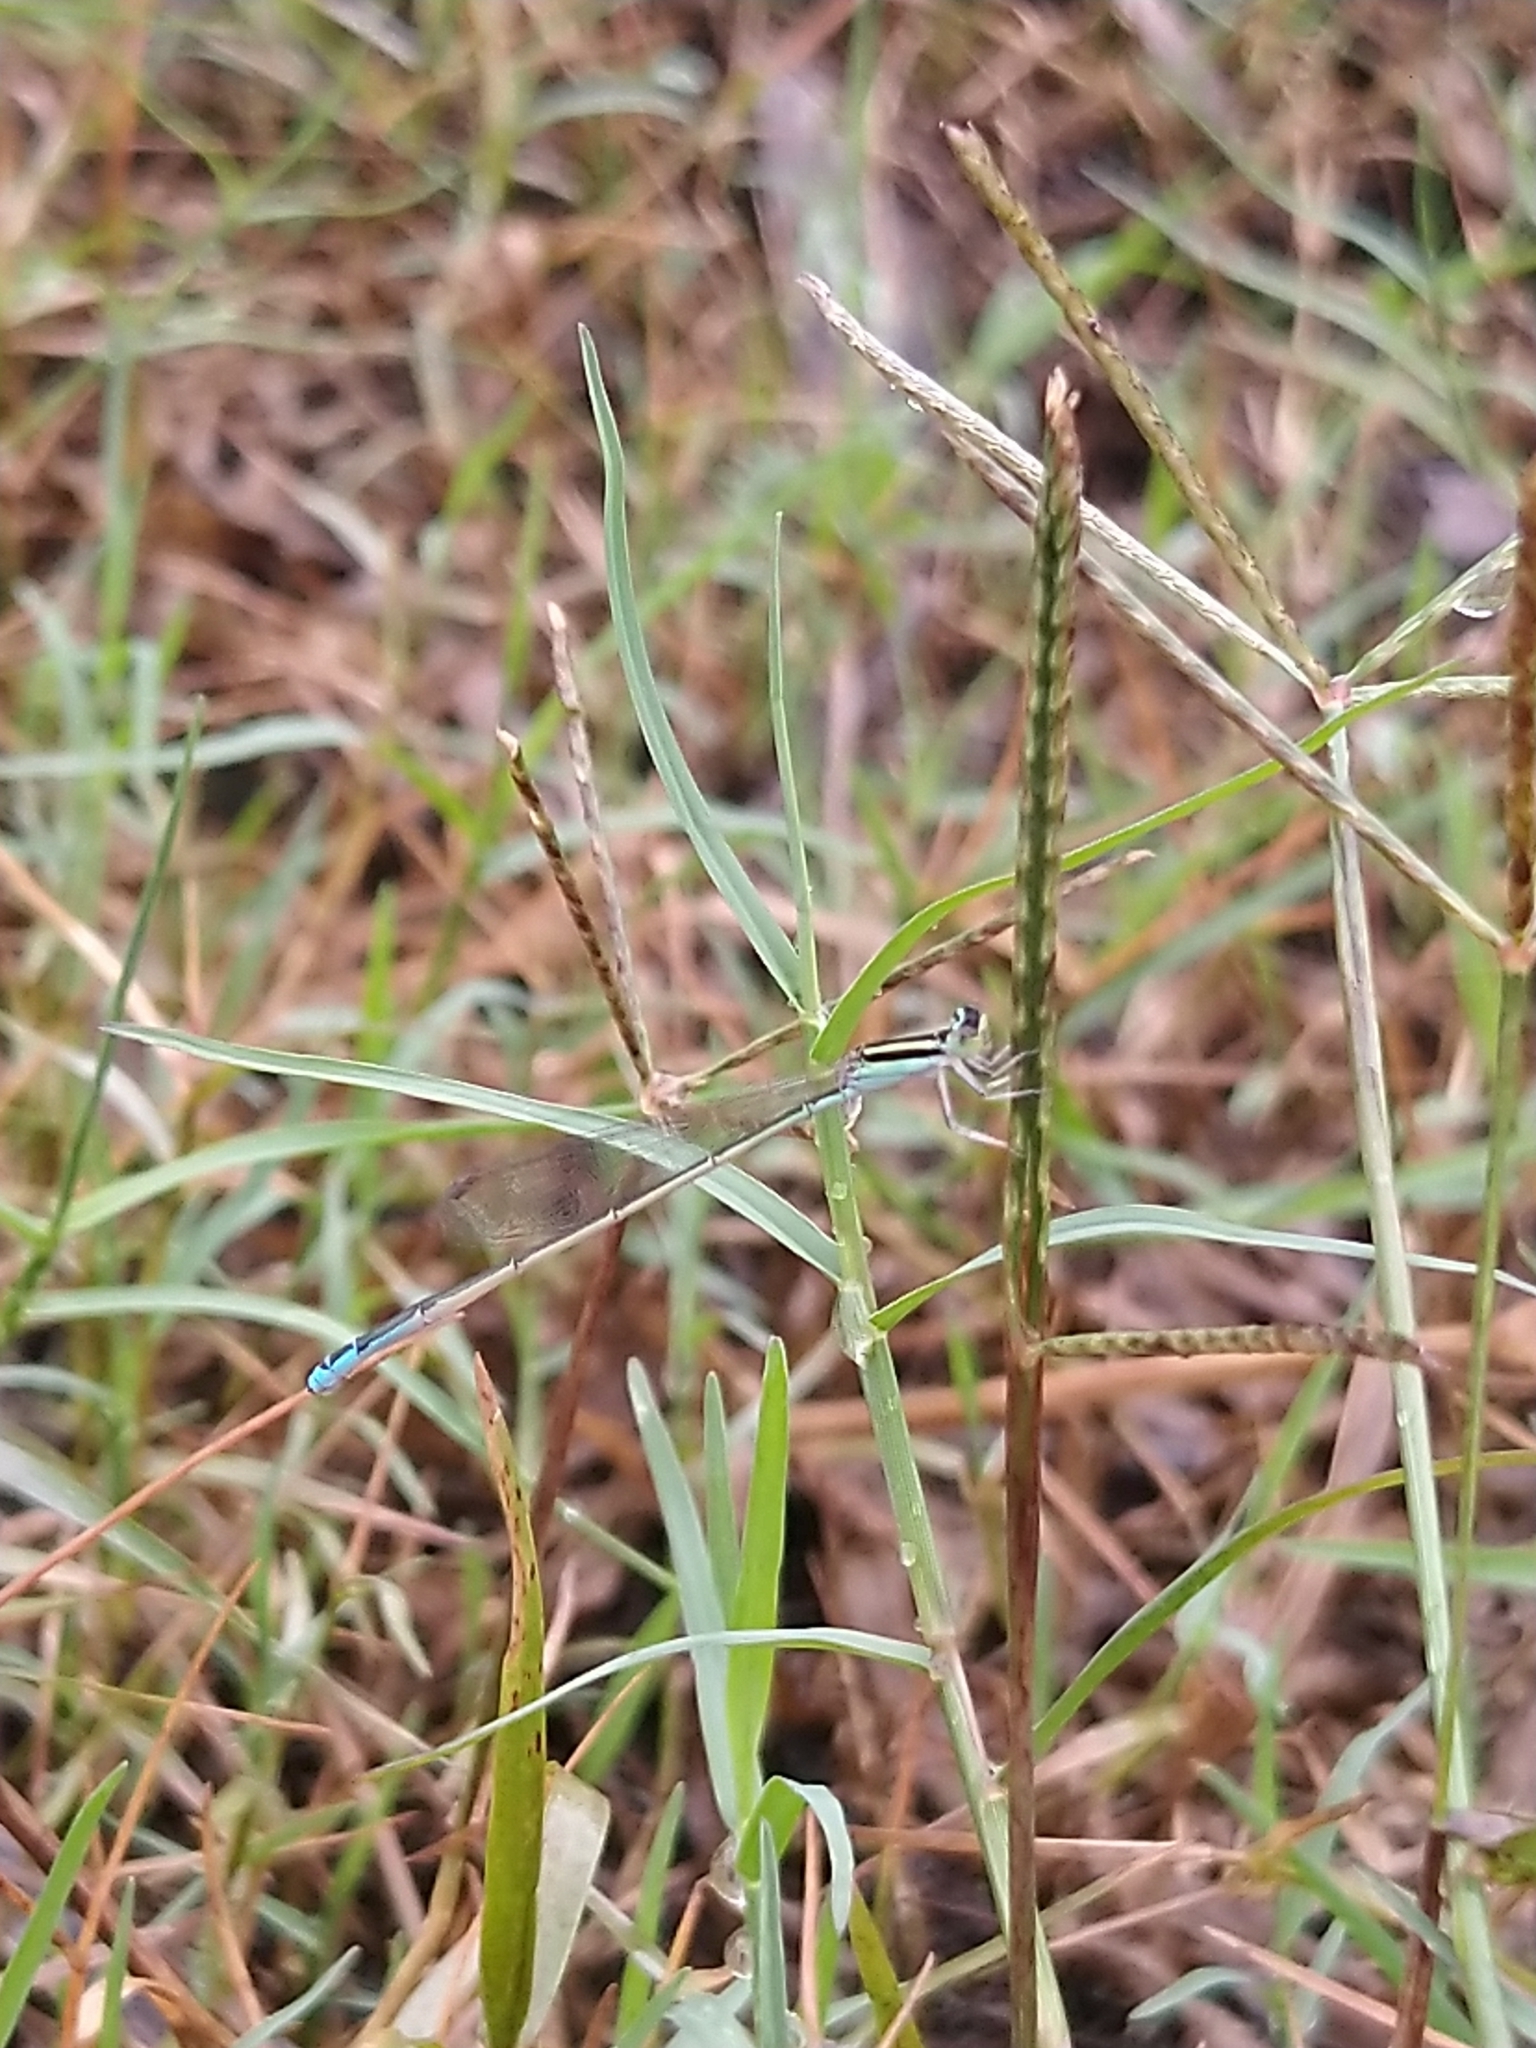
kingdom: Animalia
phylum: Arthropoda
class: Insecta
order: Odonata
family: Coenagrionidae
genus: Aciagrion
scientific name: Aciagrion occidentale
